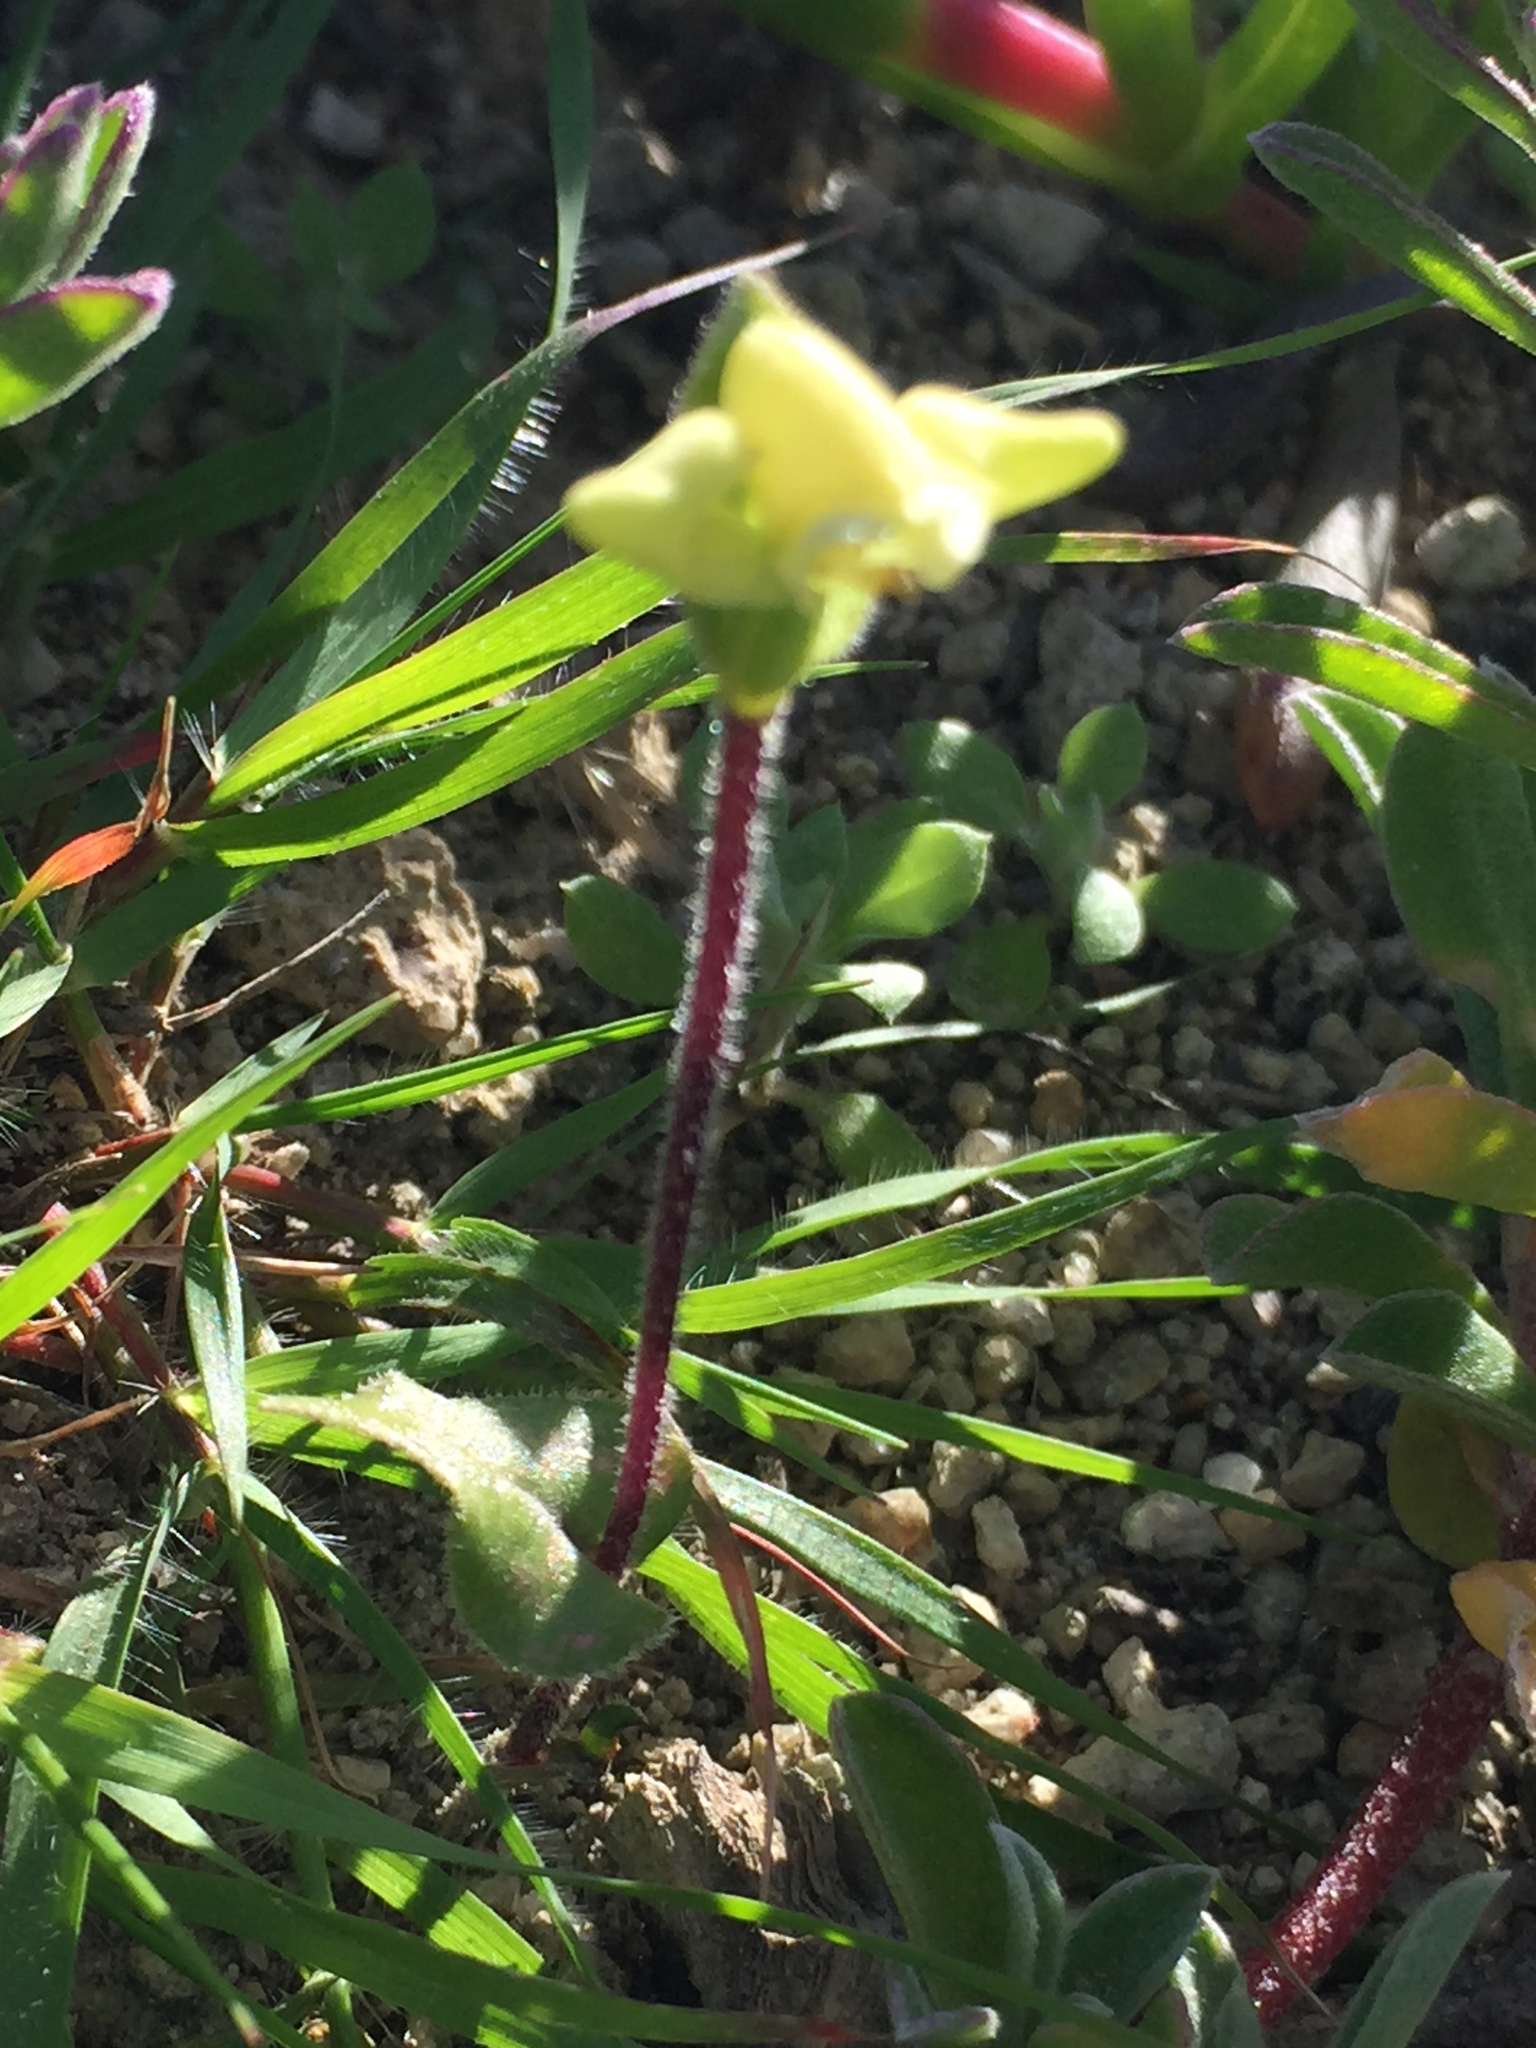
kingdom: Plantae
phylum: Tracheophyta
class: Liliopsida
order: Asparagales
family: Orchidaceae
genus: Disperis
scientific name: Disperis villosa
